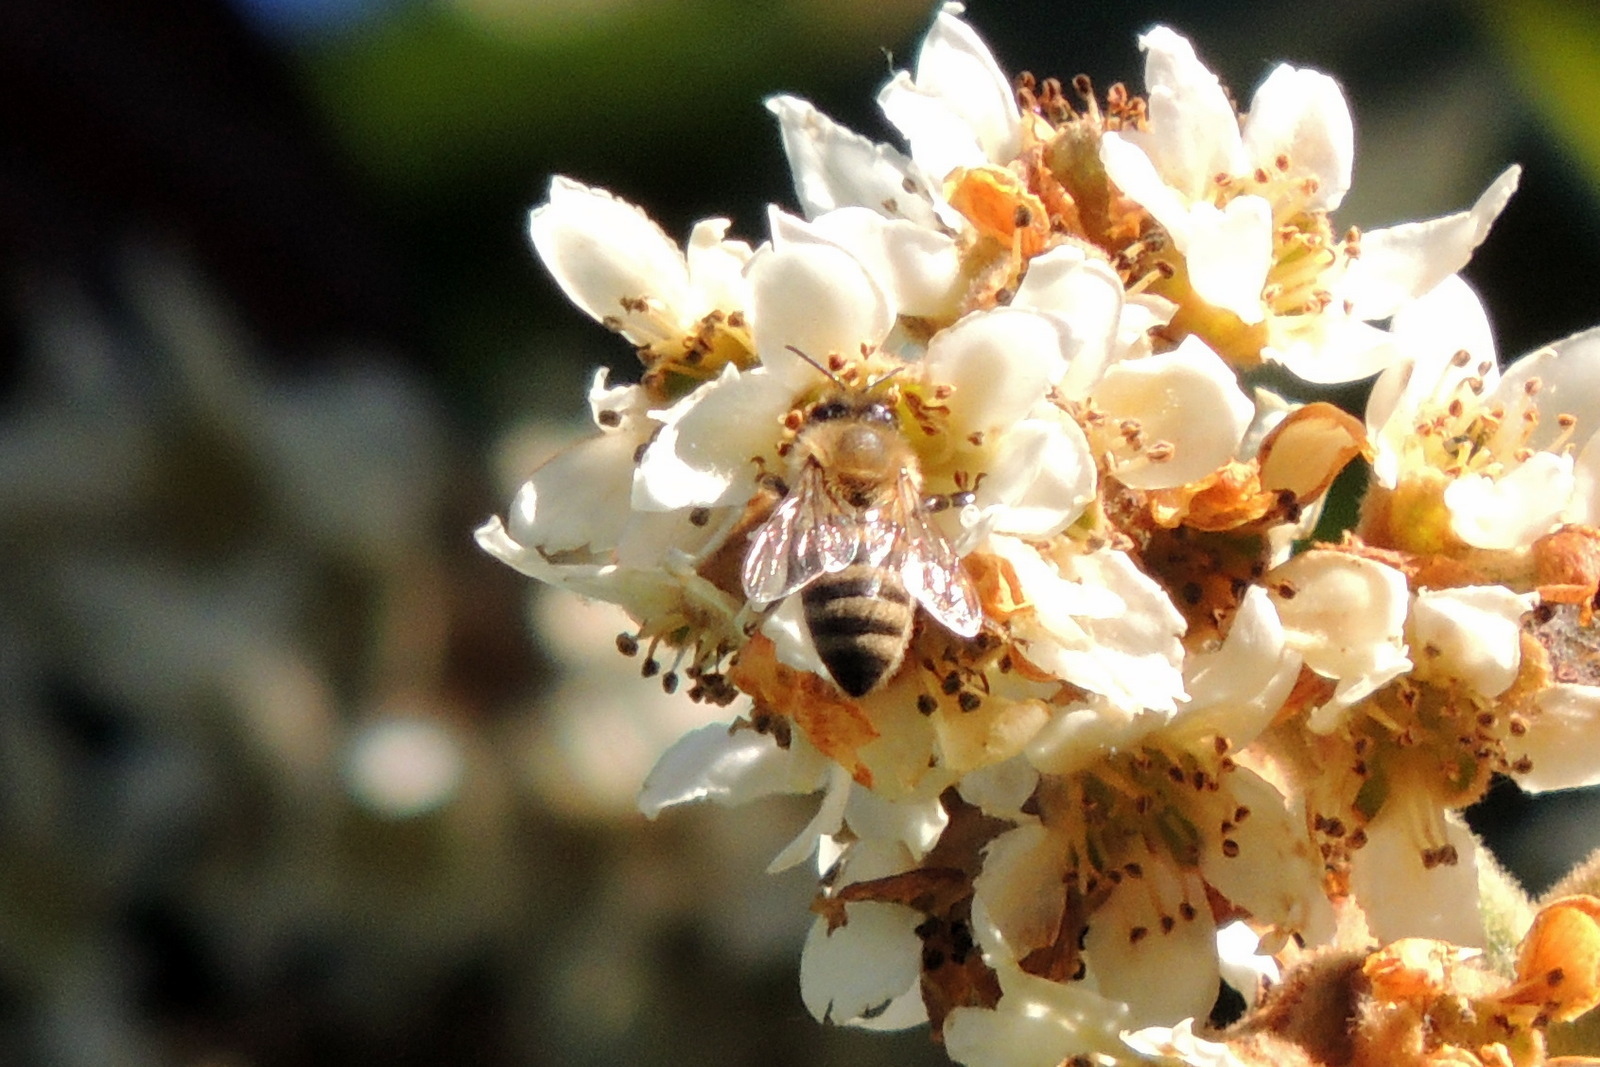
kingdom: Animalia
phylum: Arthropoda
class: Insecta
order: Hymenoptera
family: Apidae
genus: Apis
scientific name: Apis mellifera
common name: Honey bee
